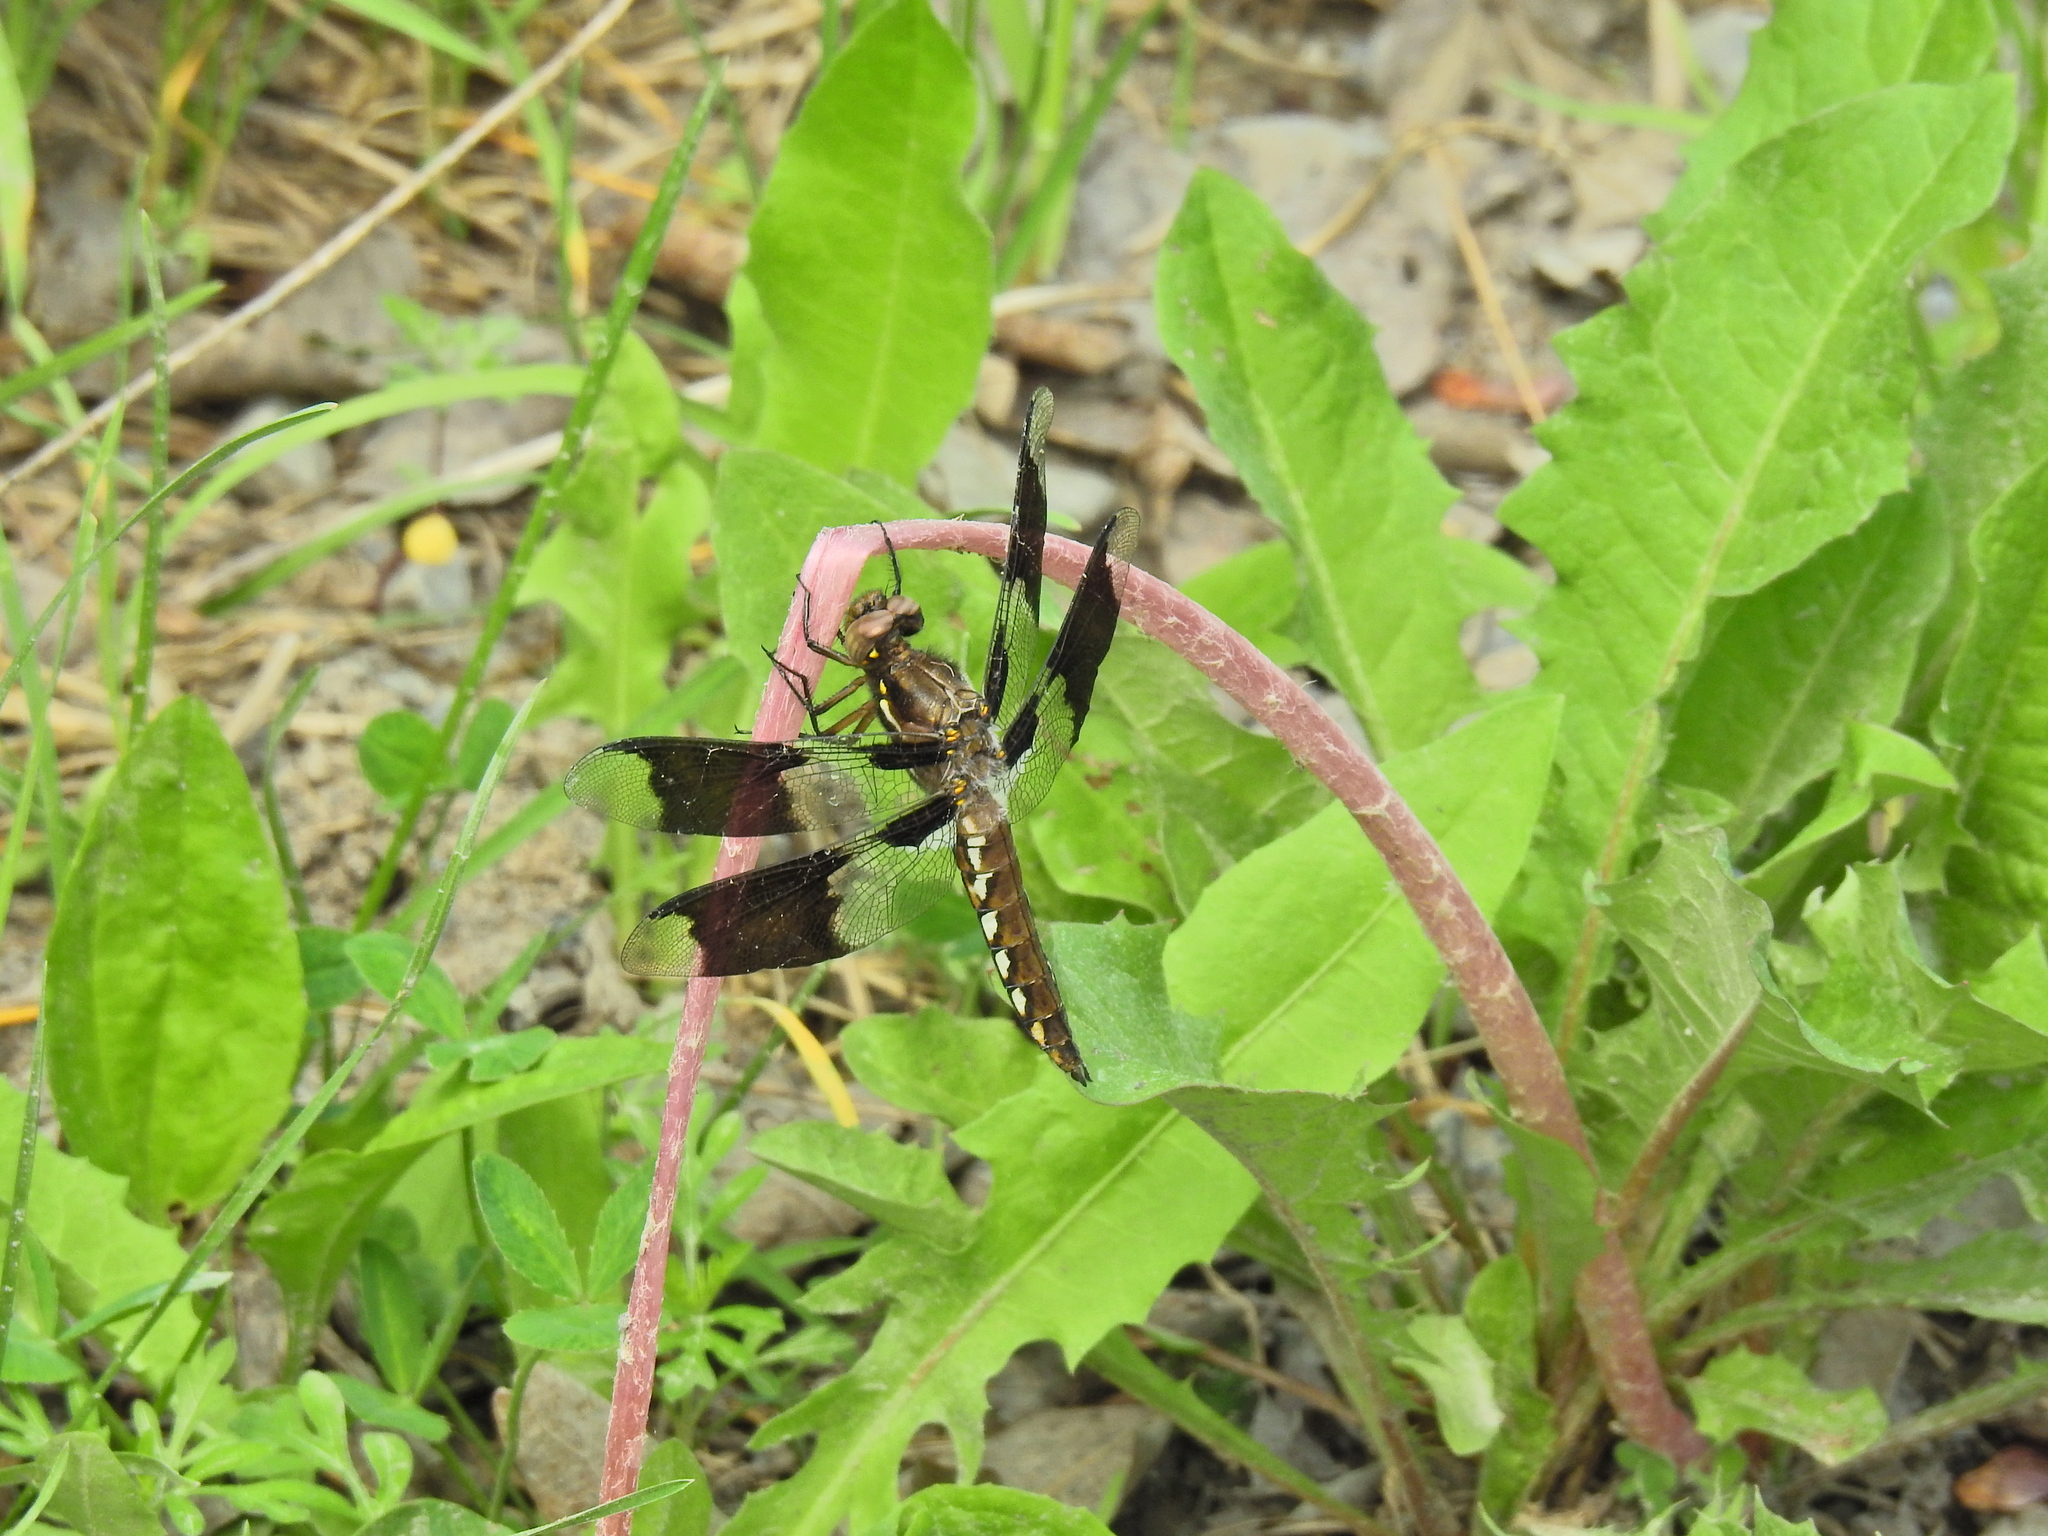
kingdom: Animalia
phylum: Arthropoda
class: Insecta
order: Odonata
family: Libellulidae
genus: Plathemis
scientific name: Plathemis lydia
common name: Common whitetail
